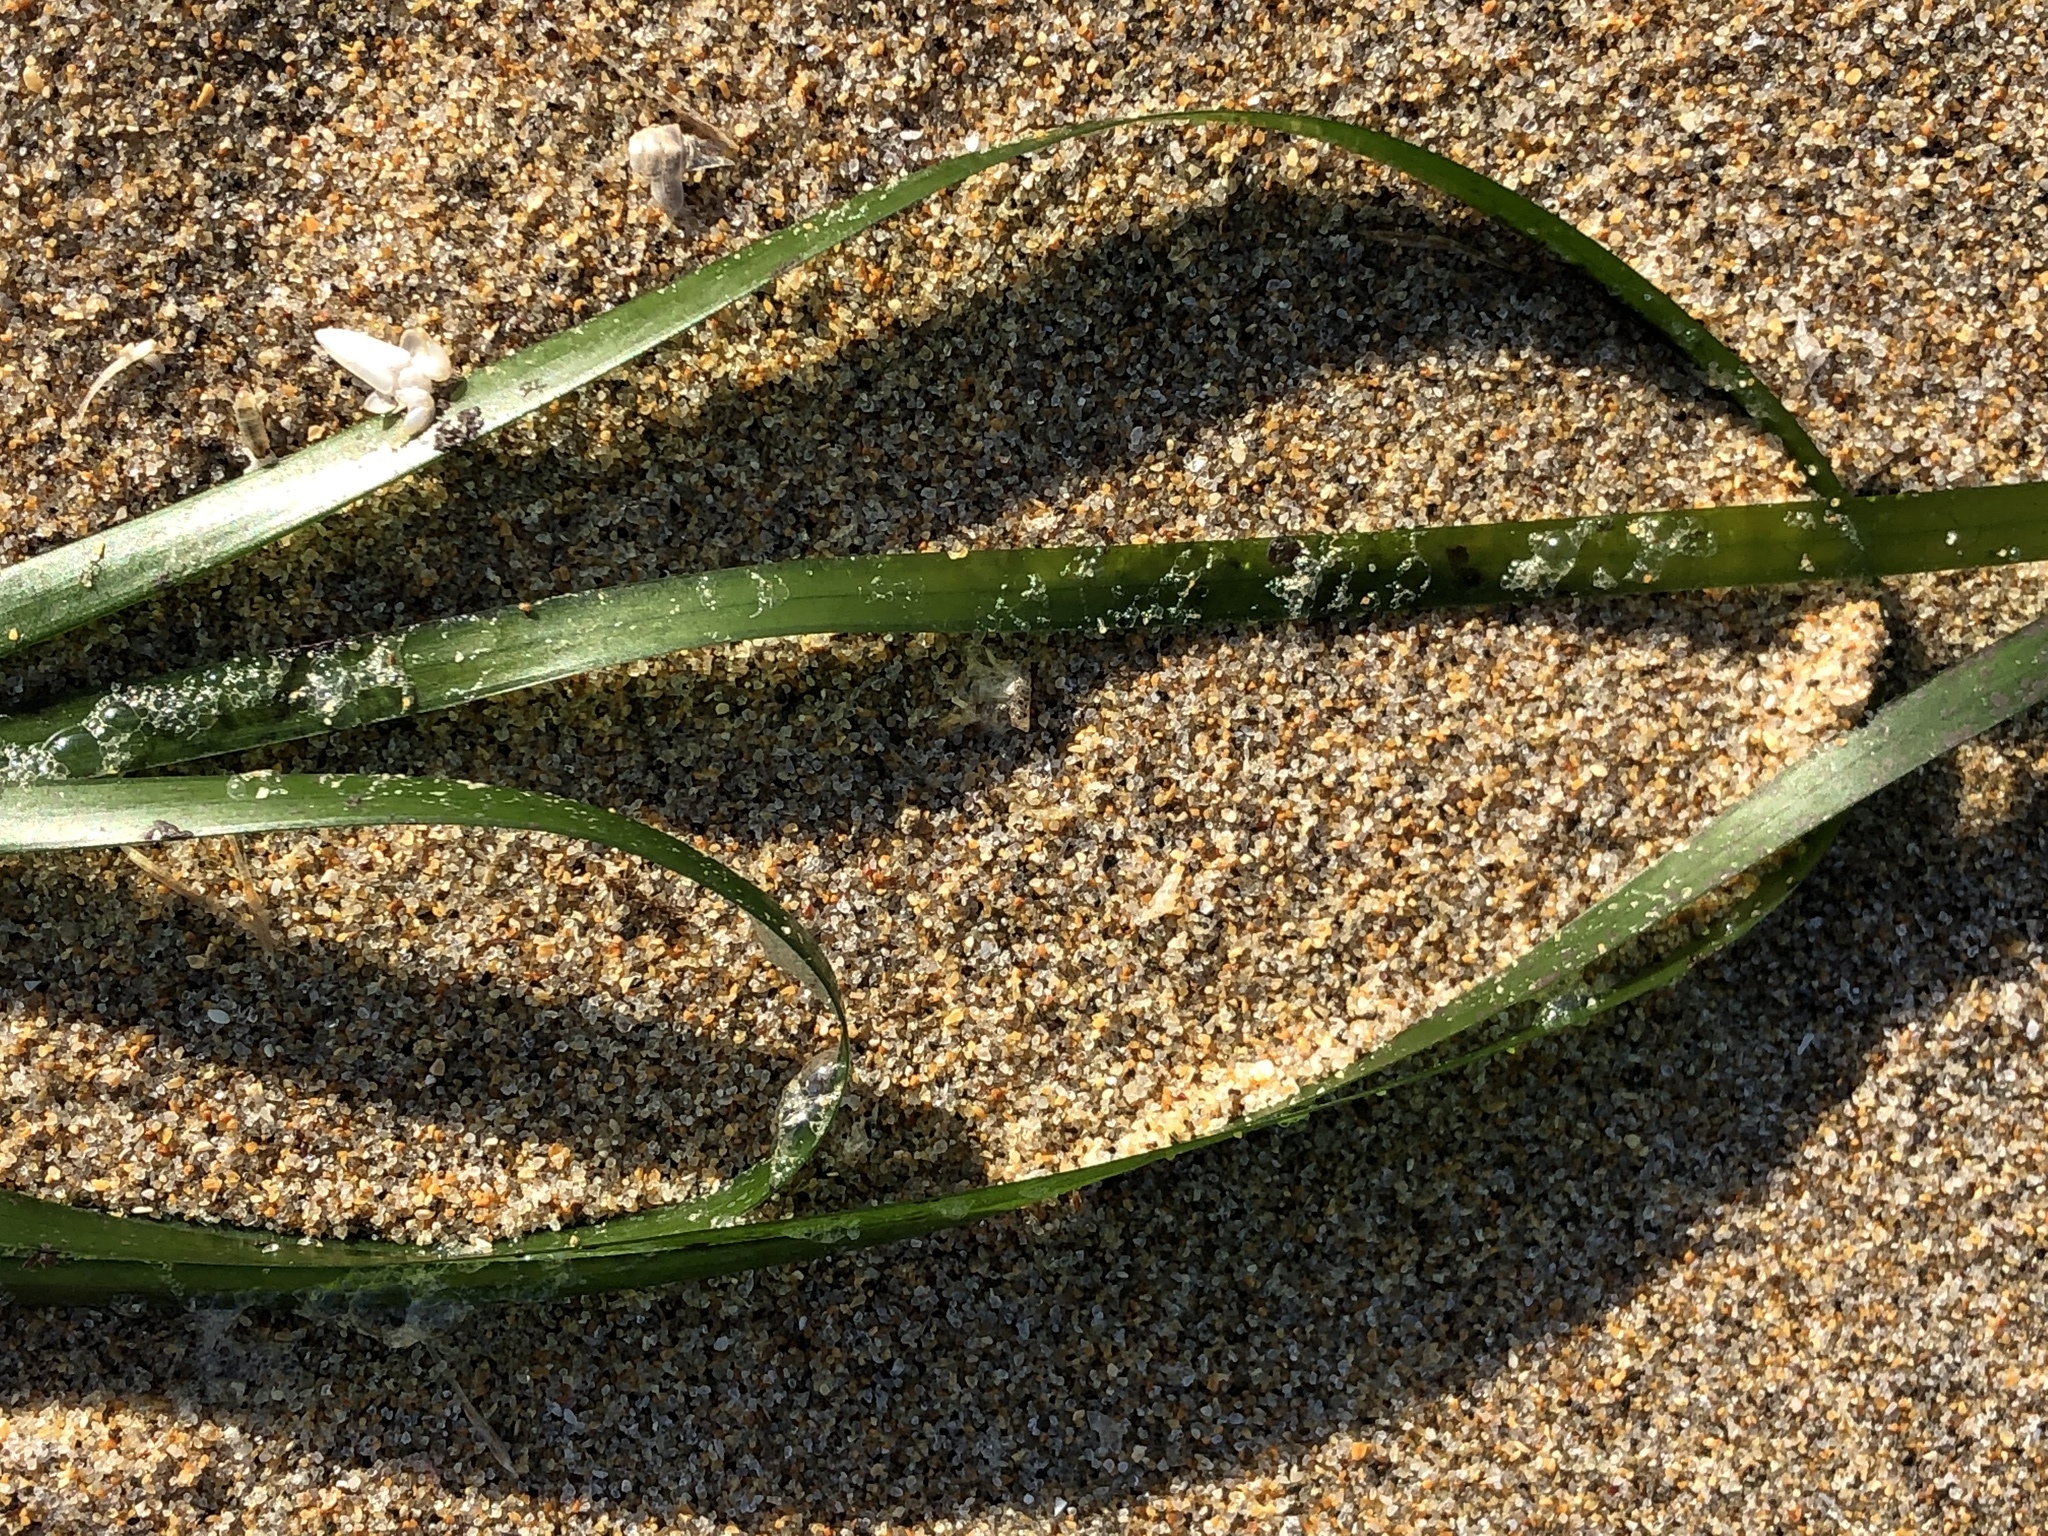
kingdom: Plantae
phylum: Tracheophyta
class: Liliopsida
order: Alismatales
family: Zosteraceae
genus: Phyllospadix
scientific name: Phyllospadix scouleri
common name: Species code: ps
